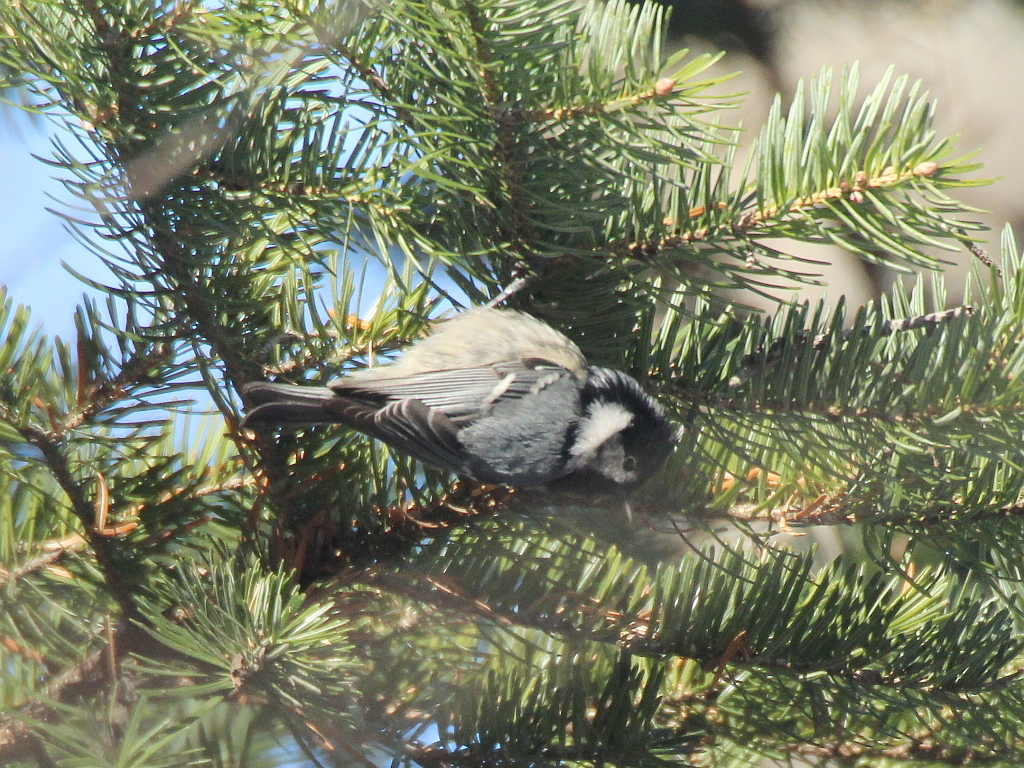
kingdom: Animalia
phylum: Chordata
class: Aves
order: Passeriformes
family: Paridae
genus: Periparus
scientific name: Periparus ater
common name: Coal tit
